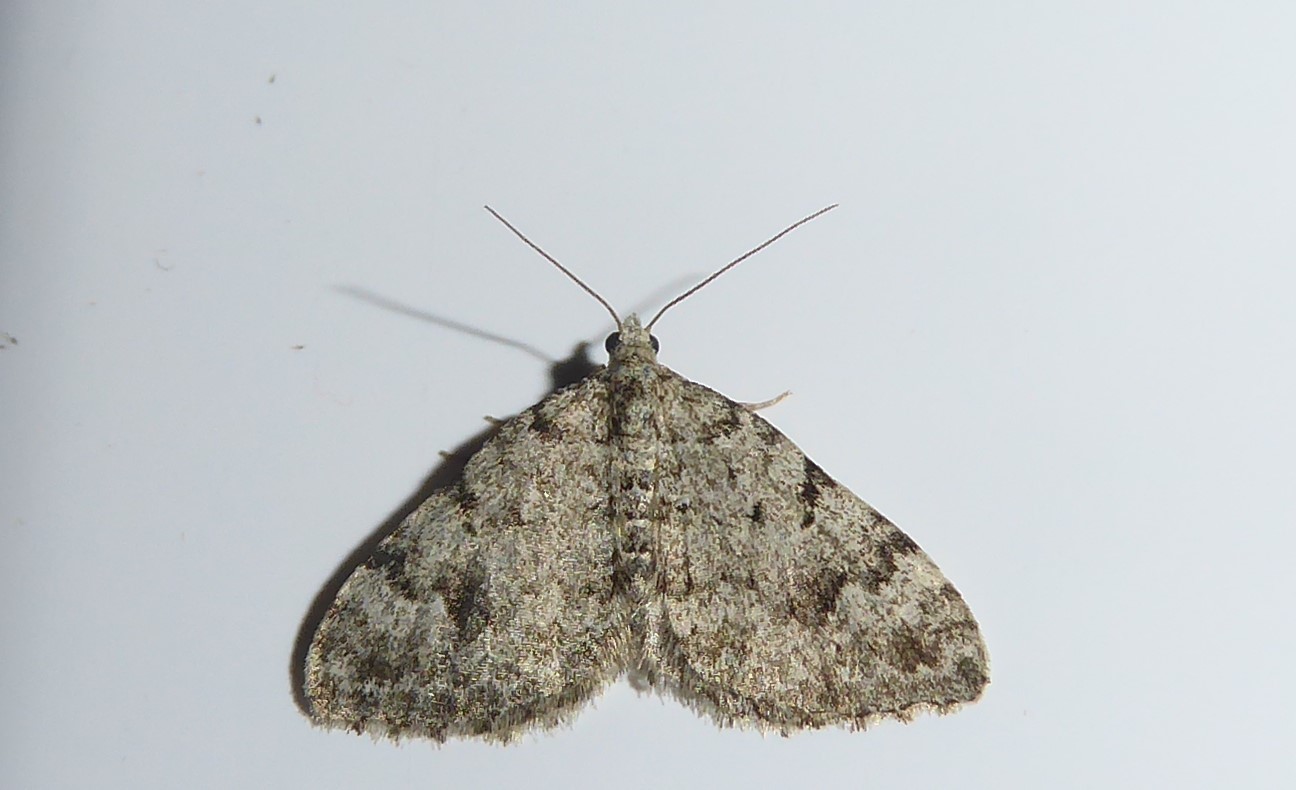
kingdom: Animalia
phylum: Arthropoda
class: Insecta
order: Lepidoptera
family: Geometridae
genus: Helastia
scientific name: Helastia cinerearia
